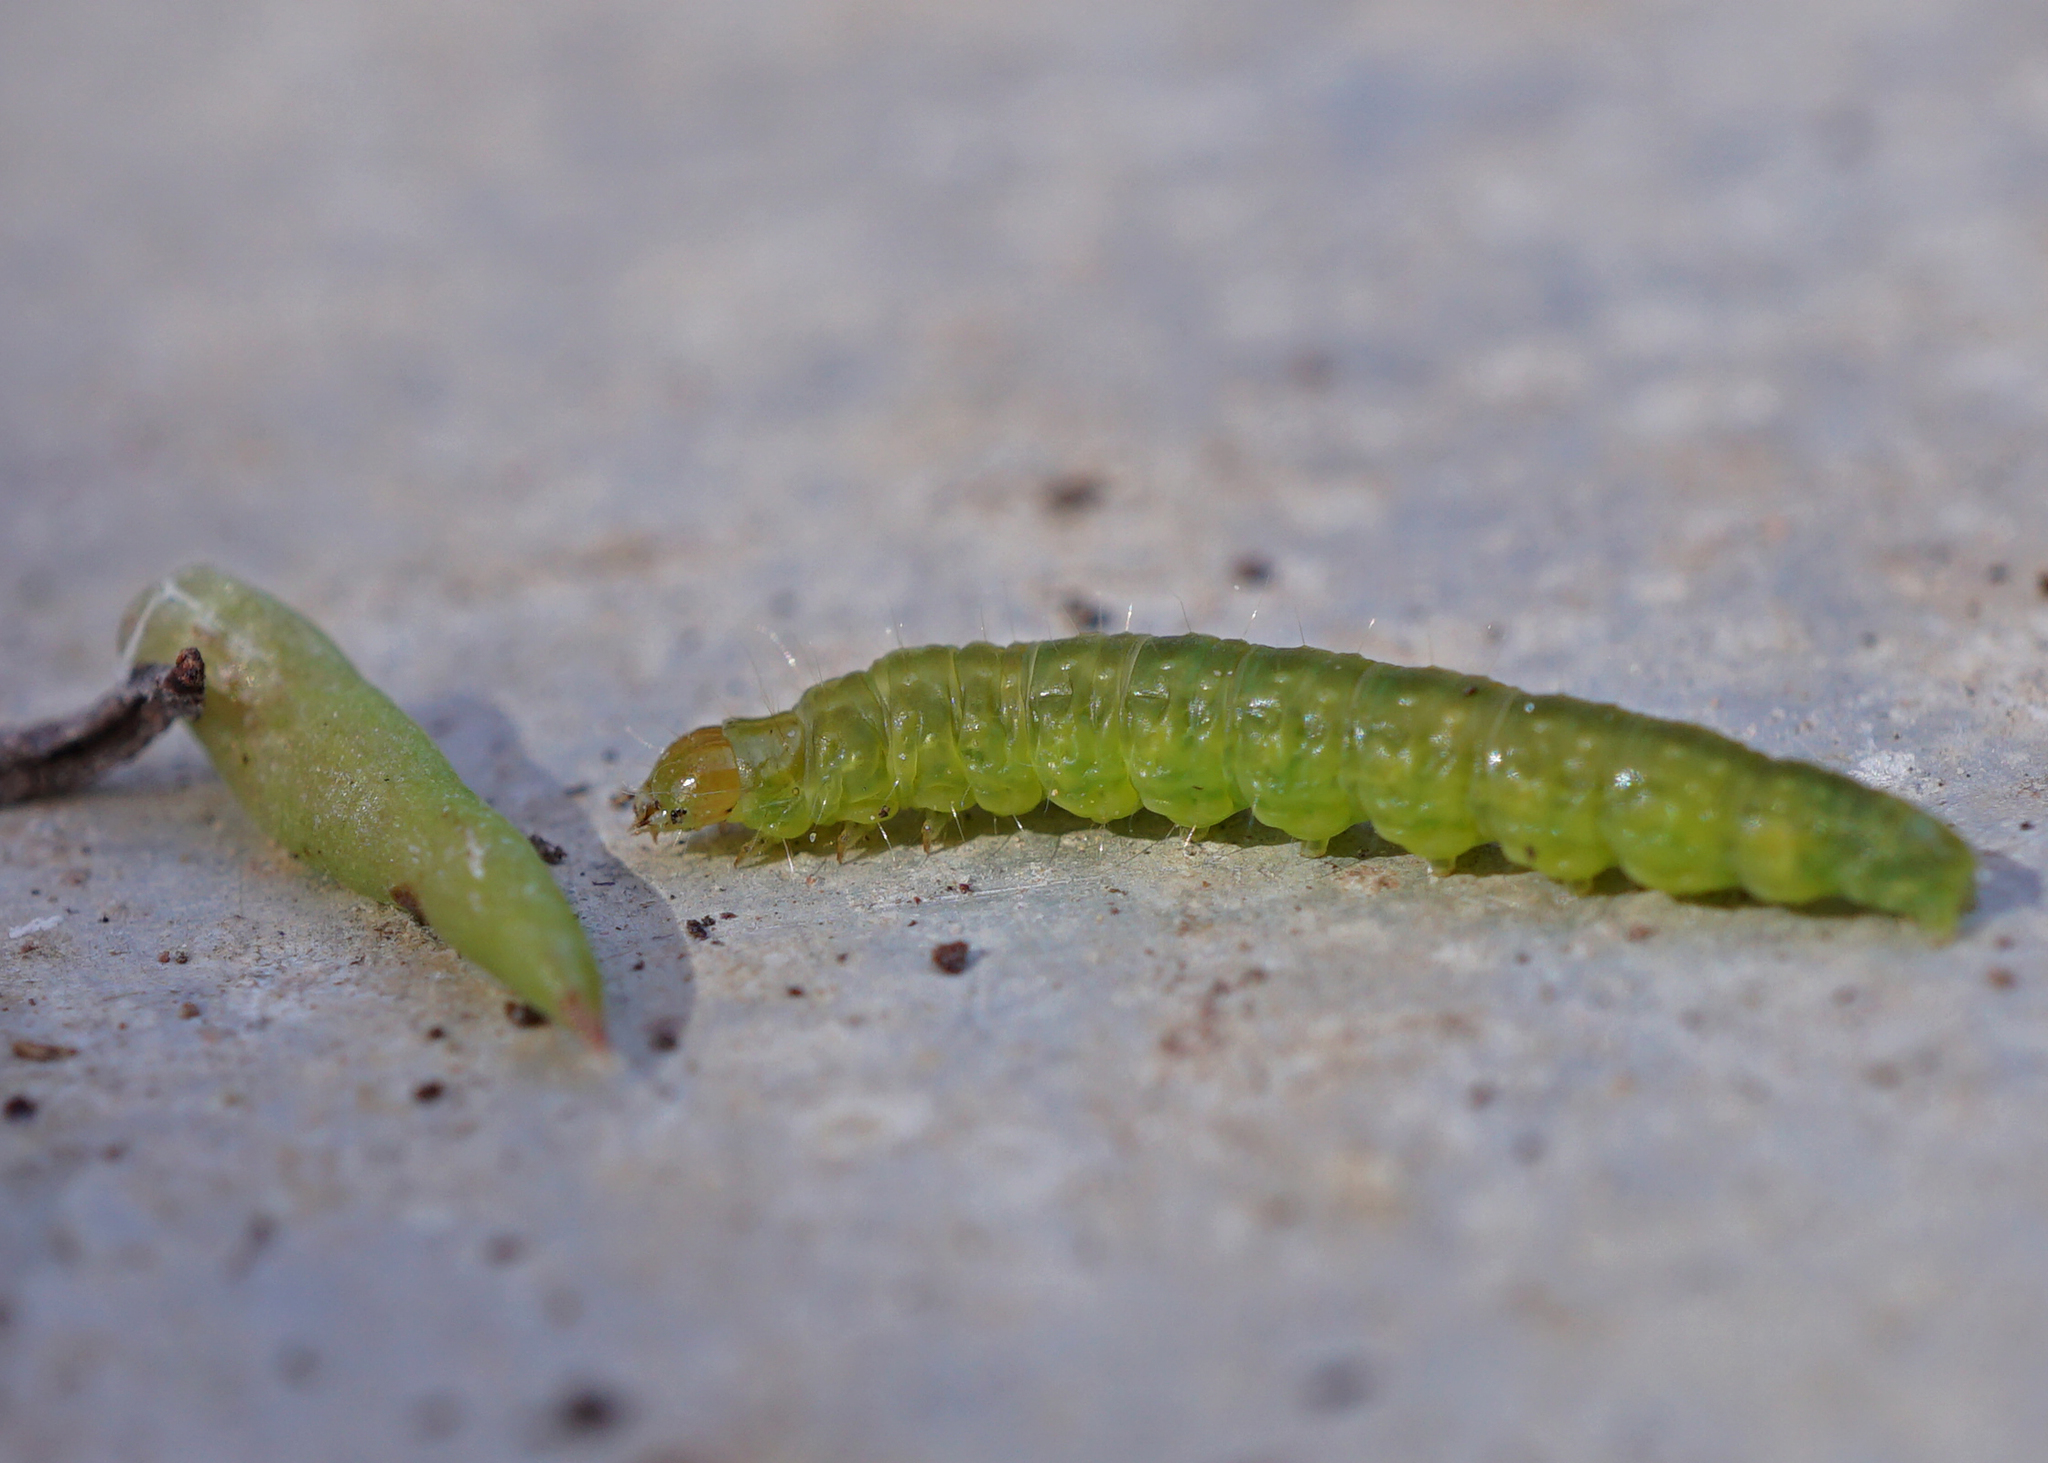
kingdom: Animalia
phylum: Arthropoda
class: Insecta
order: Lepidoptera
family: Tortricidae
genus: Epiphyas
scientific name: Epiphyas postvittana
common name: Light brown apple moth
